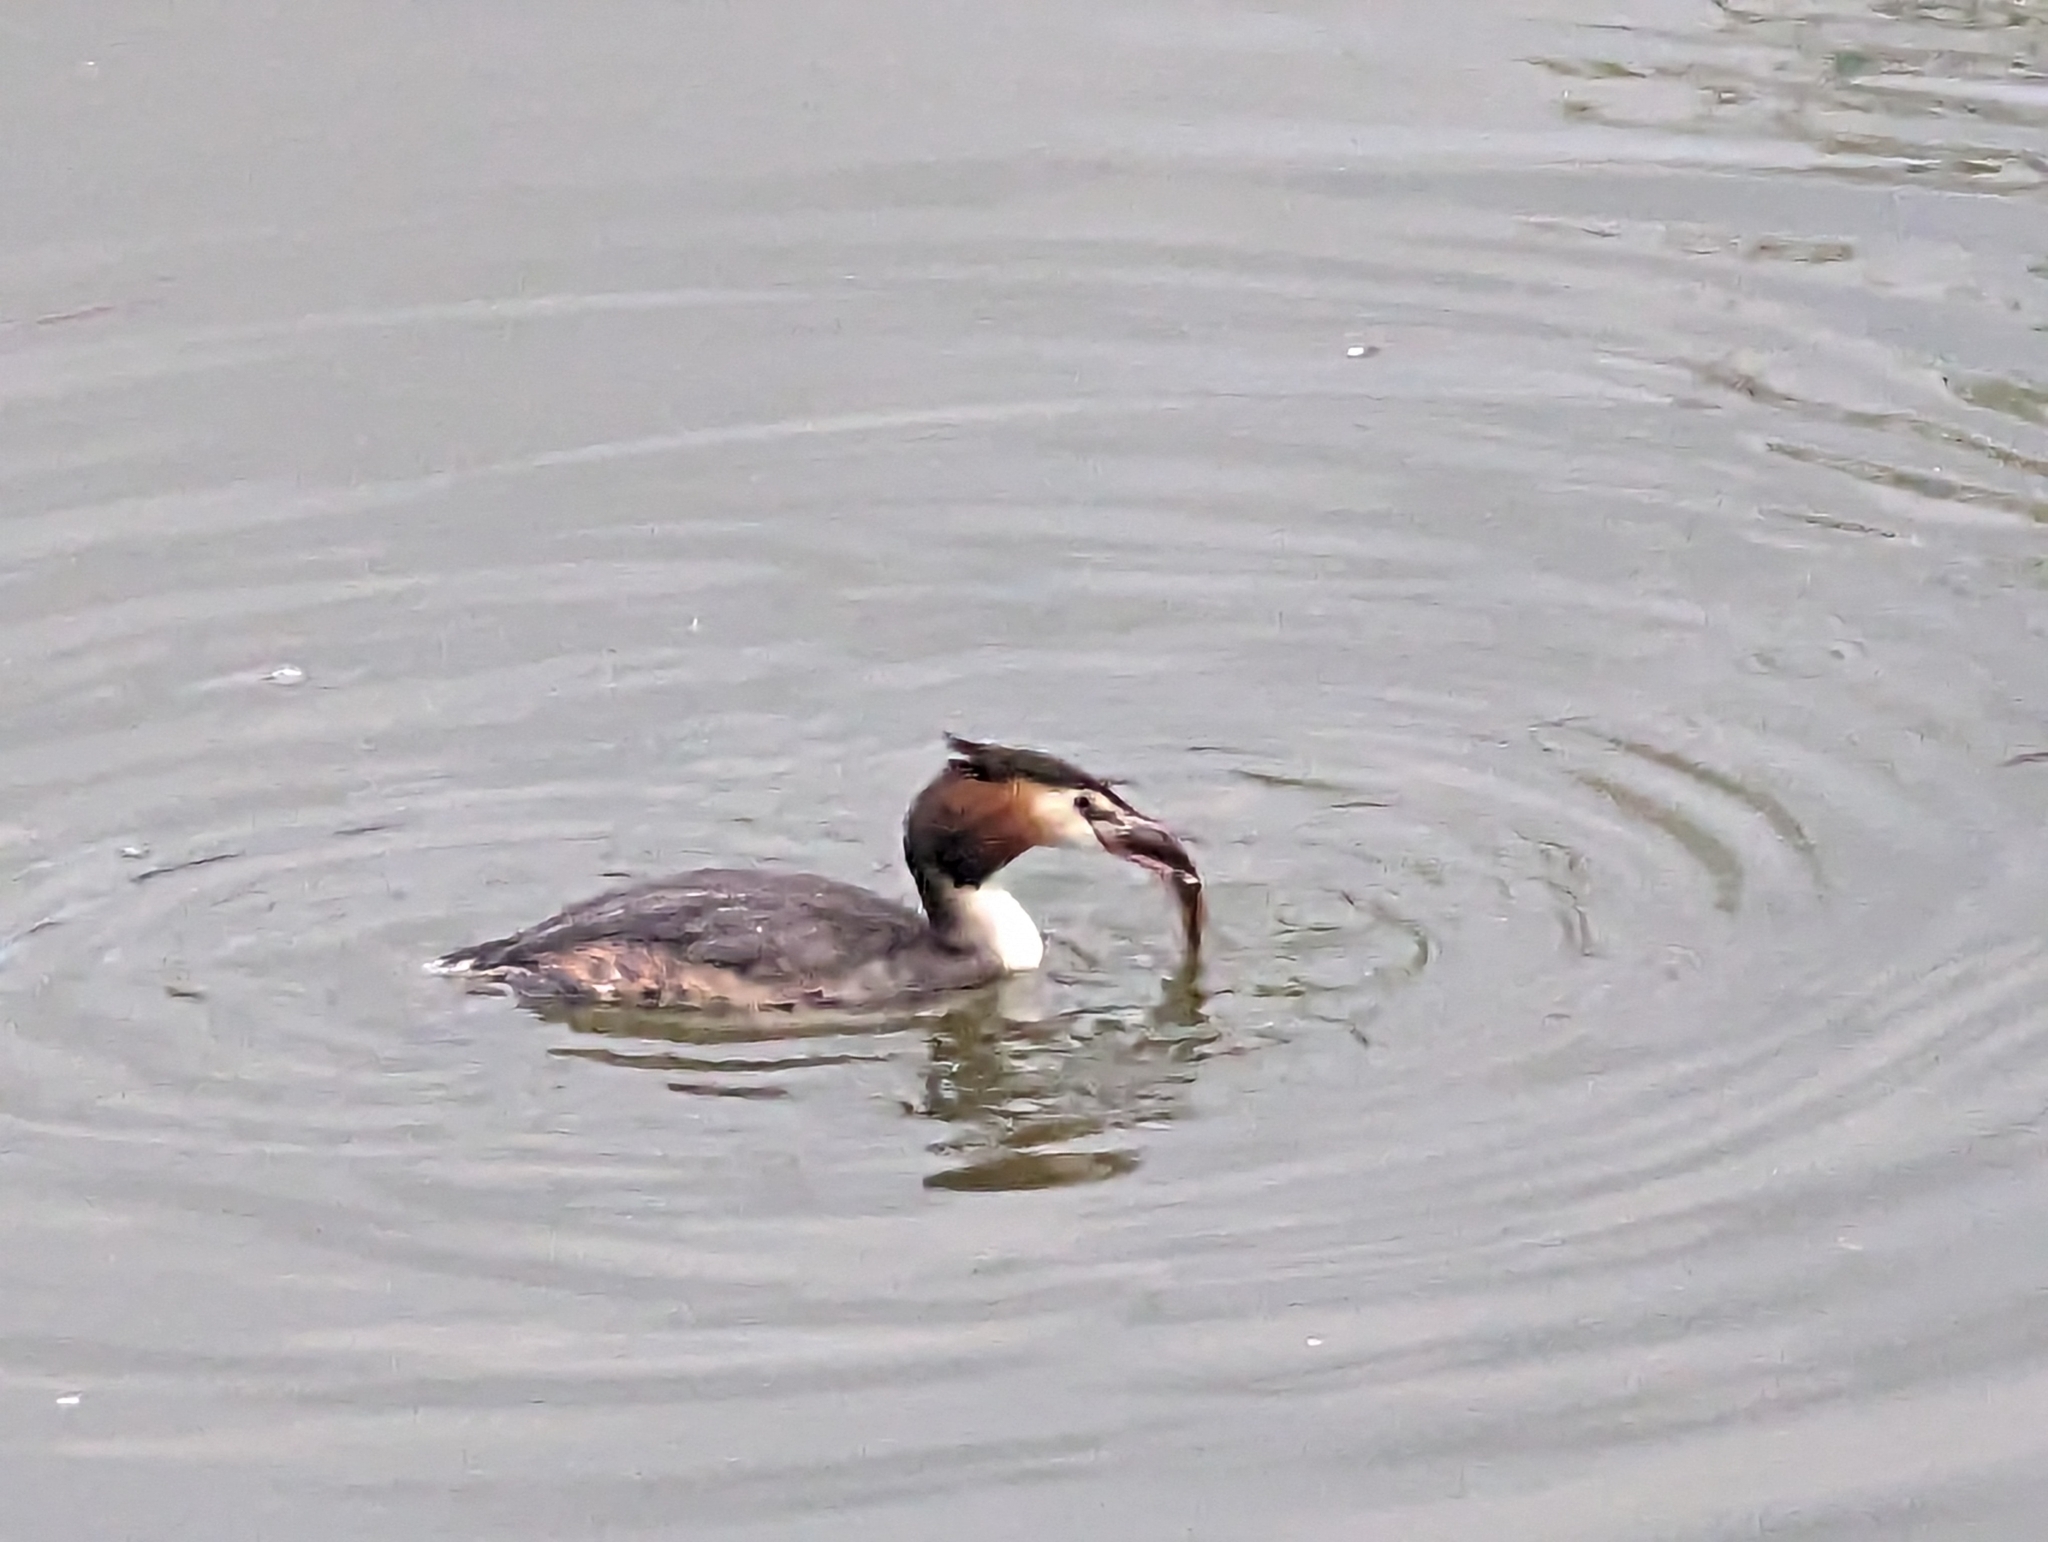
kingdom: Animalia
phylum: Chordata
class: Aves
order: Podicipediformes
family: Podicipedidae
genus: Podiceps
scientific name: Podiceps cristatus
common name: Great crested grebe
